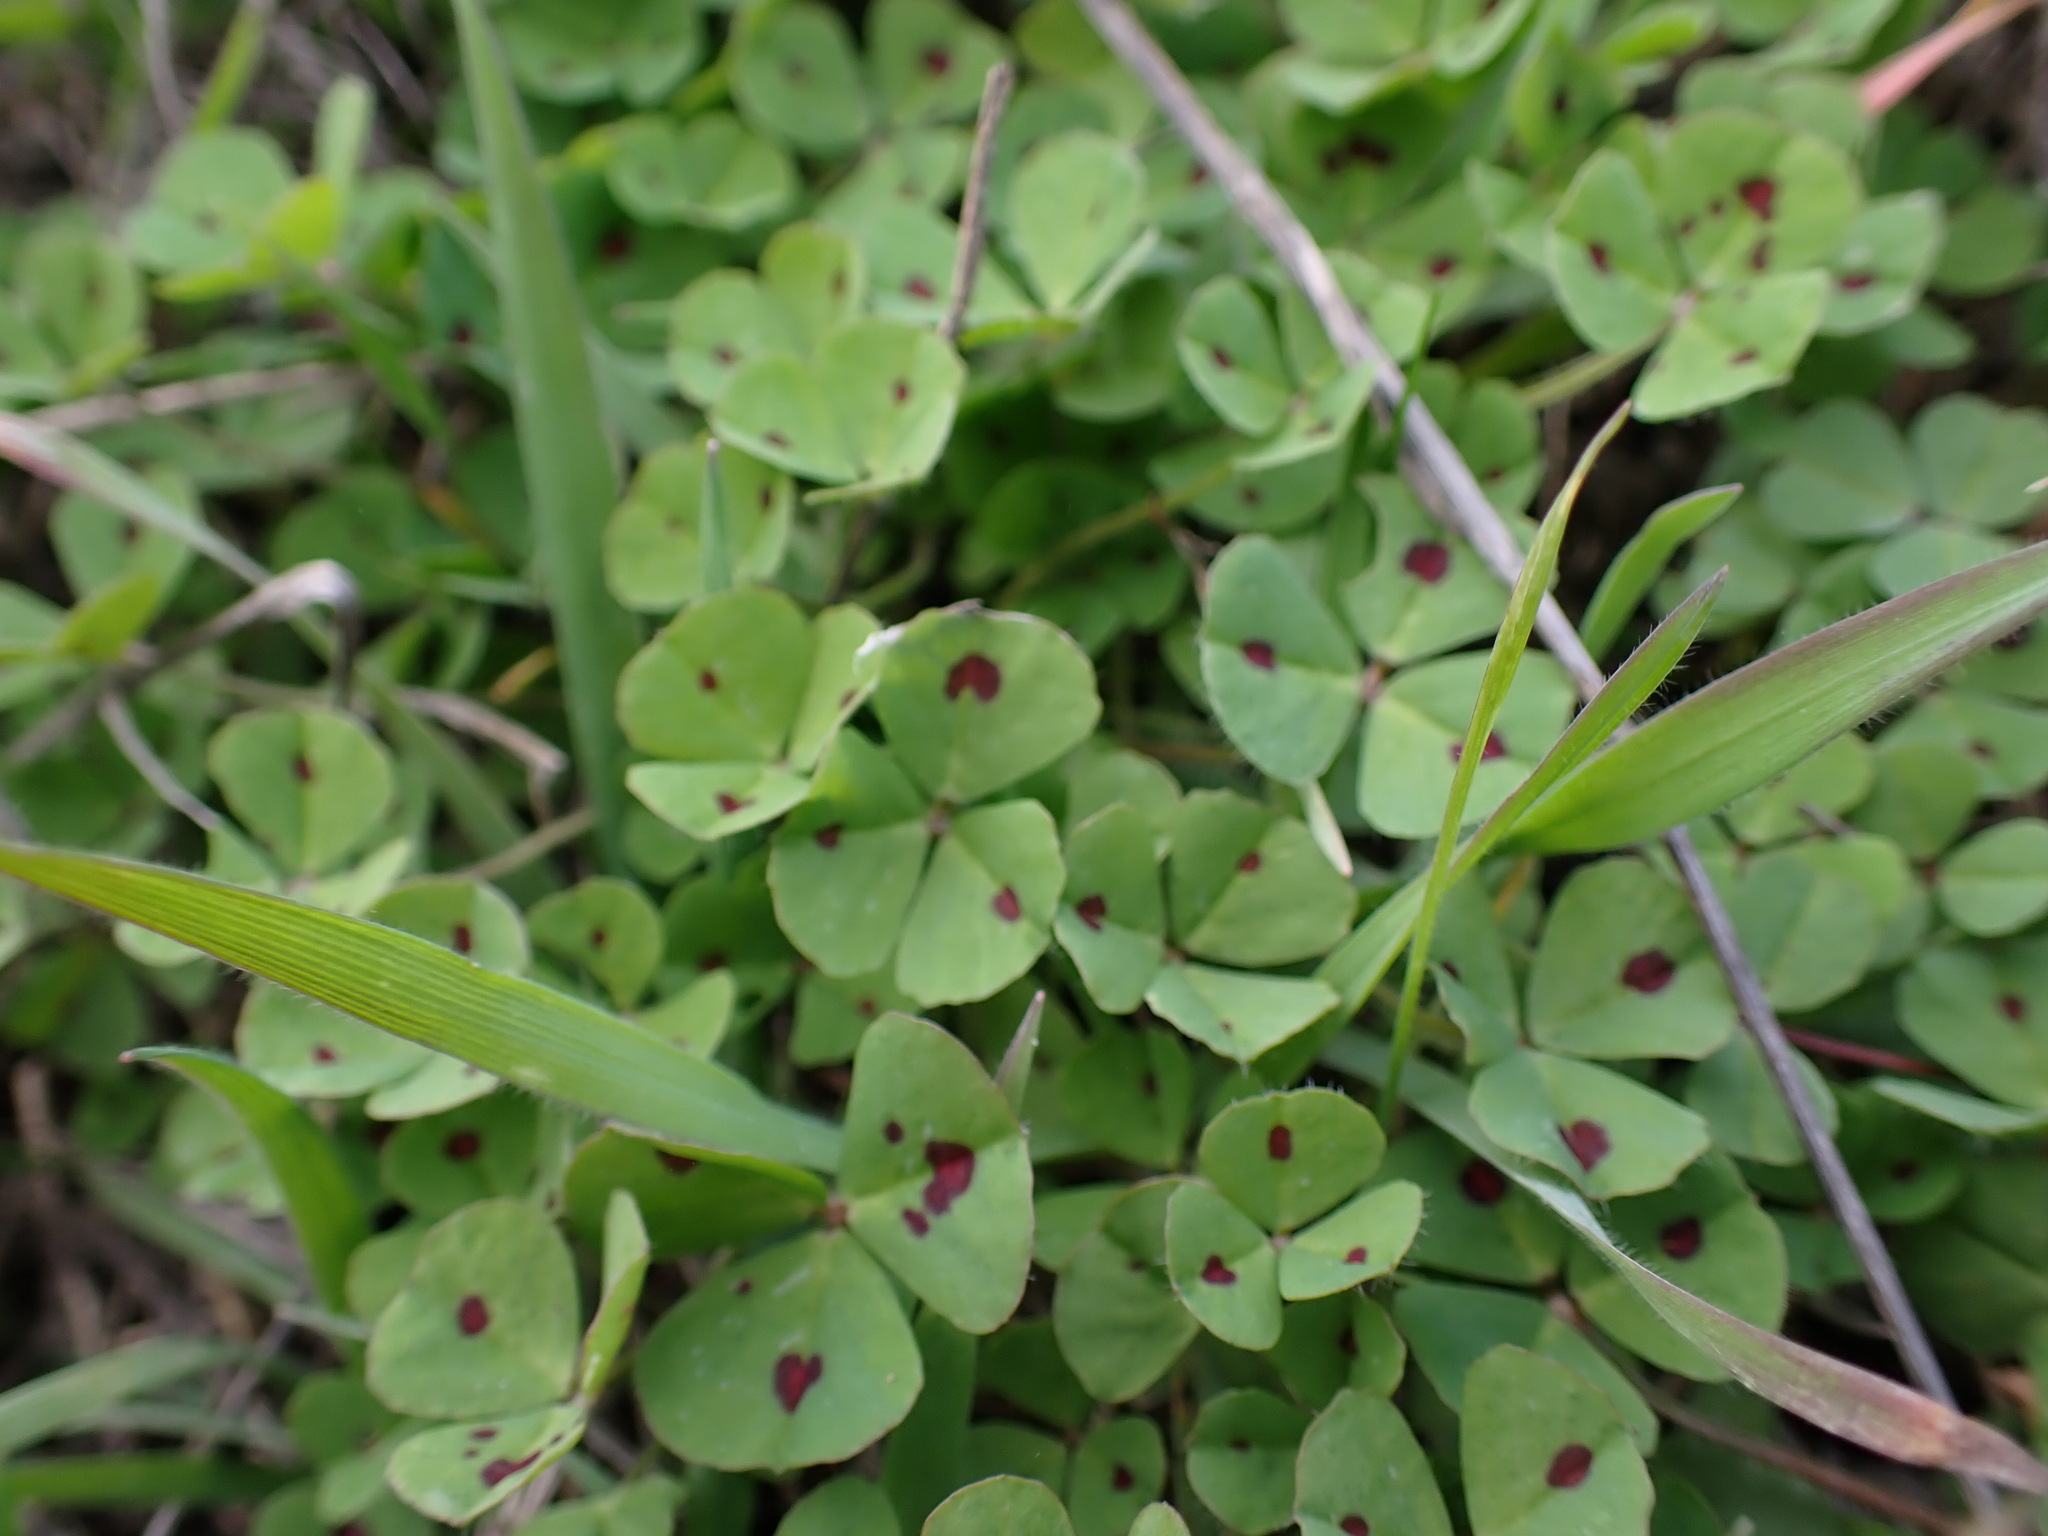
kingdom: Plantae
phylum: Tracheophyta
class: Magnoliopsida
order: Fabales
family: Fabaceae
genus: Medicago
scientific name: Medicago arabica
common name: Spotted medick
